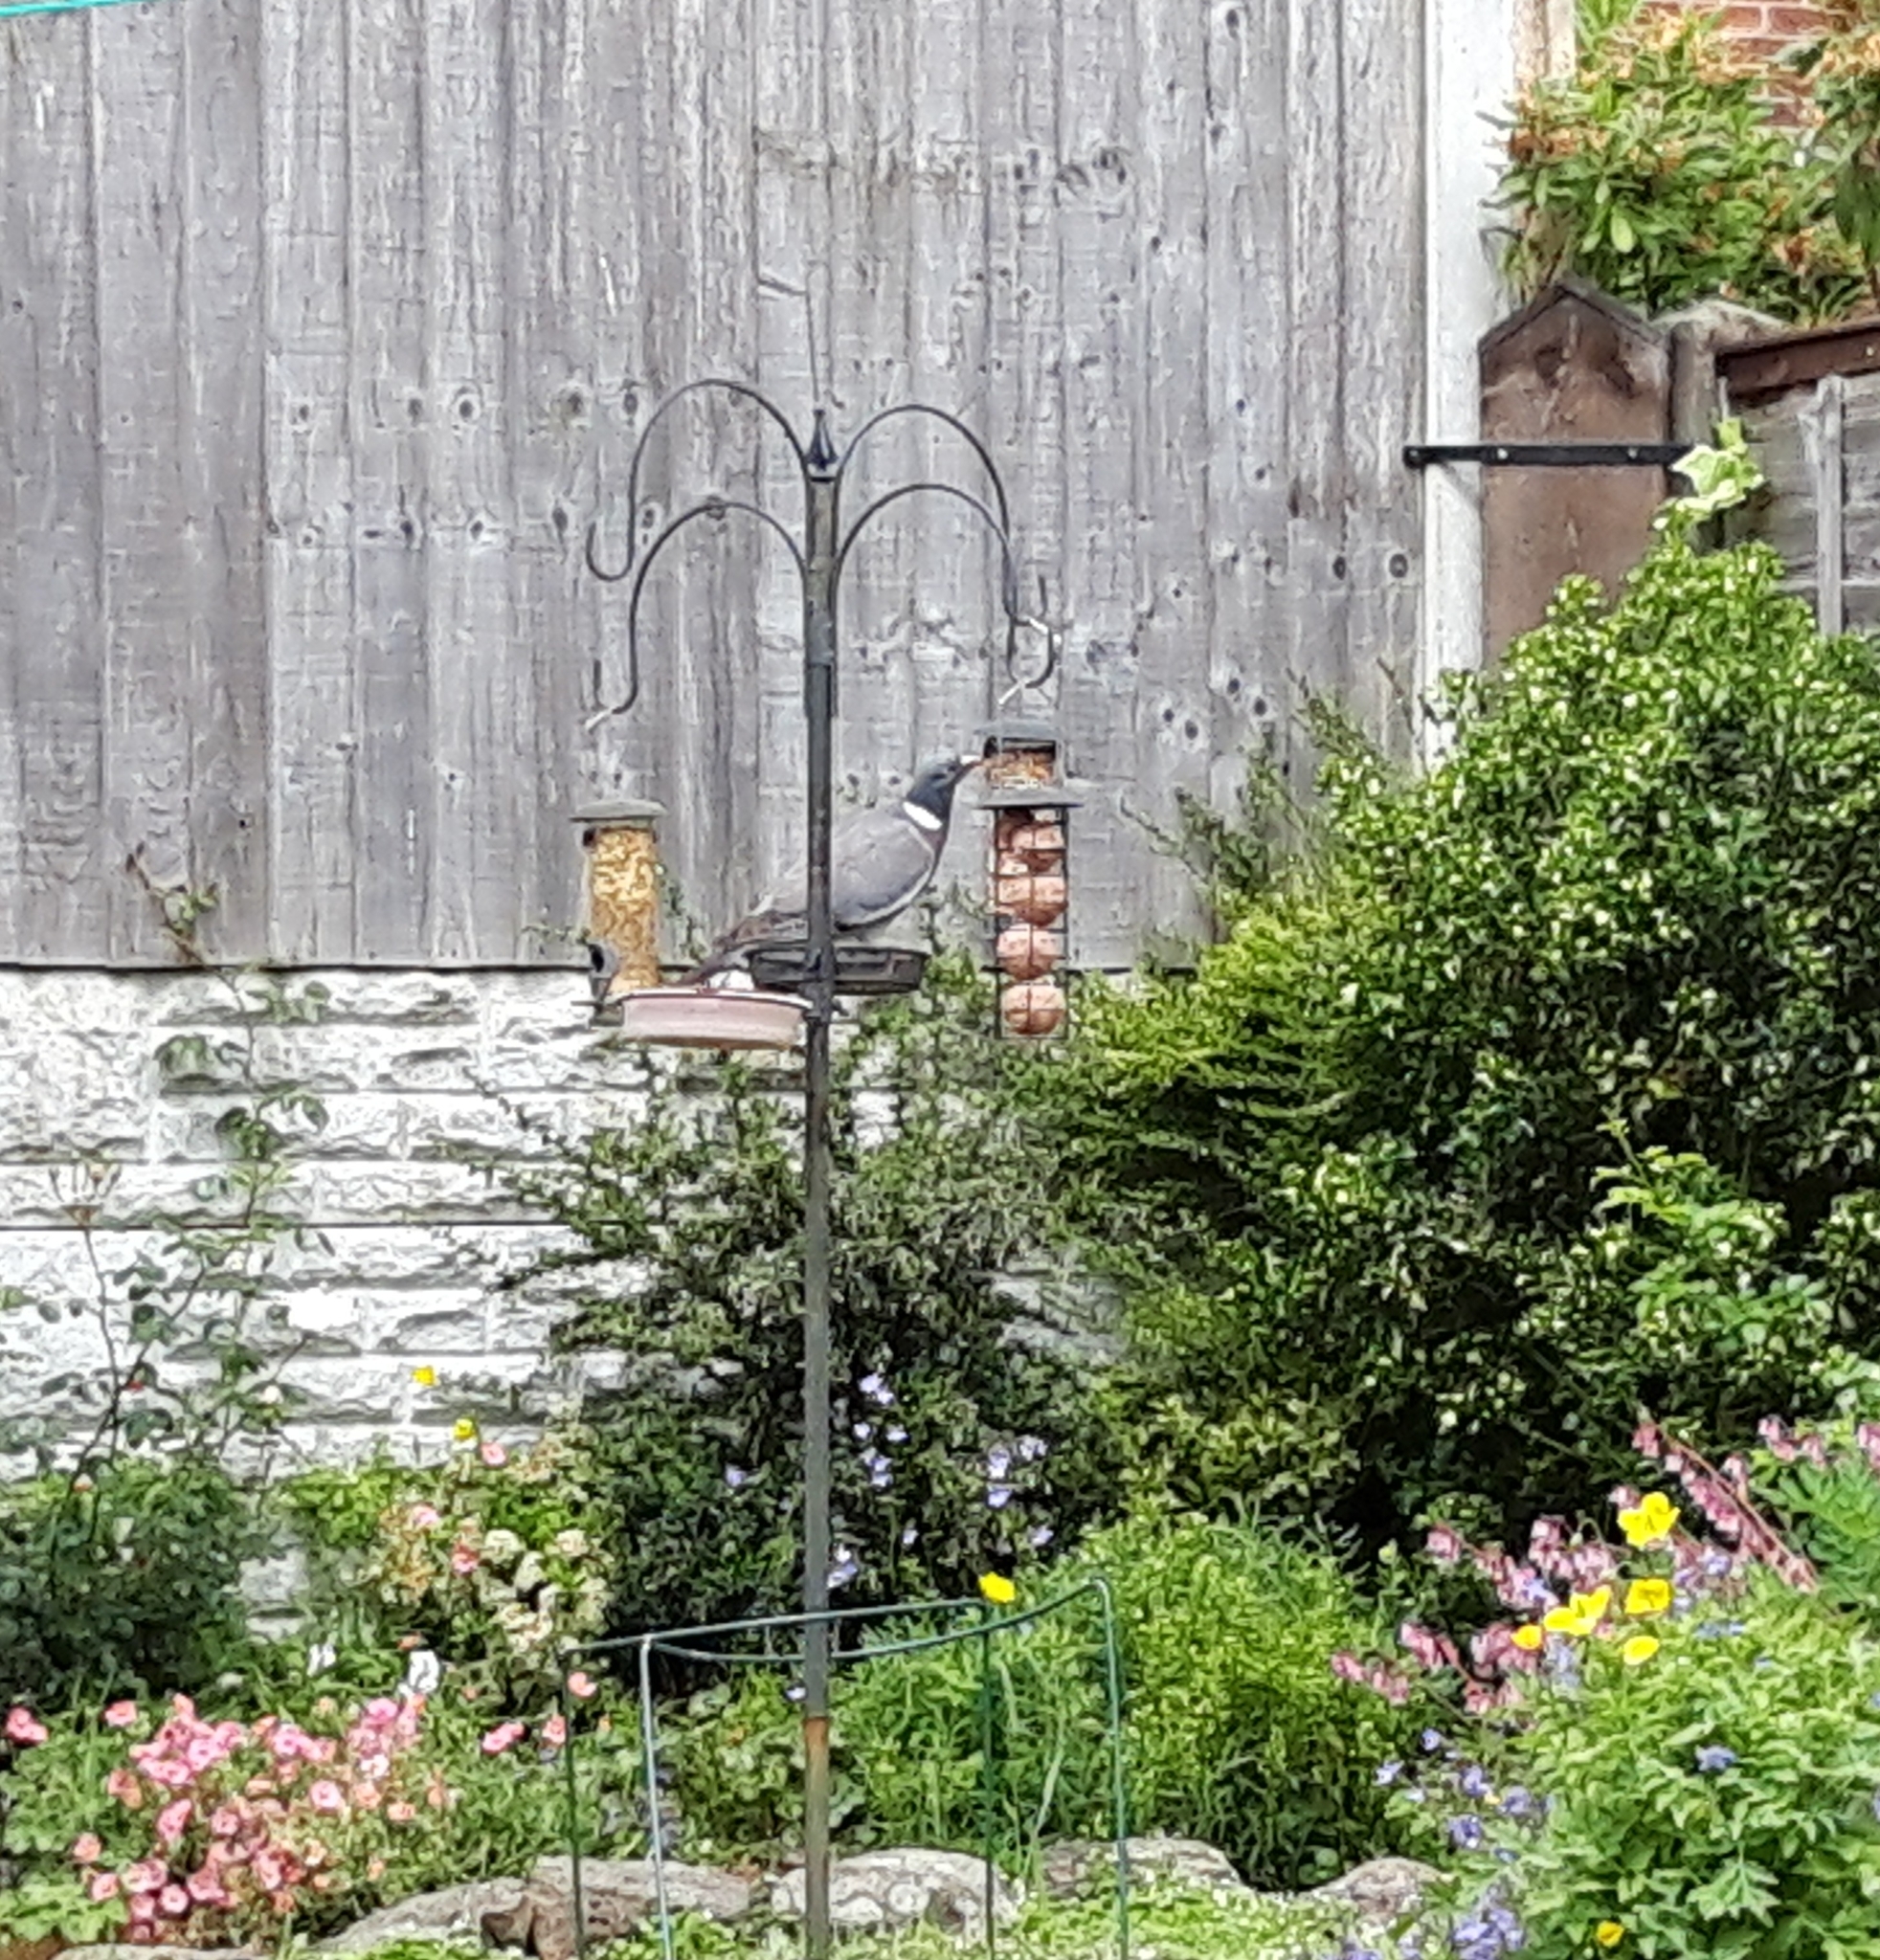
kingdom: Animalia
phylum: Chordata
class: Aves
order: Columbiformes
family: Columbidae
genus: Columba
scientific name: Columba palumbus
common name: Common wood pigeon
